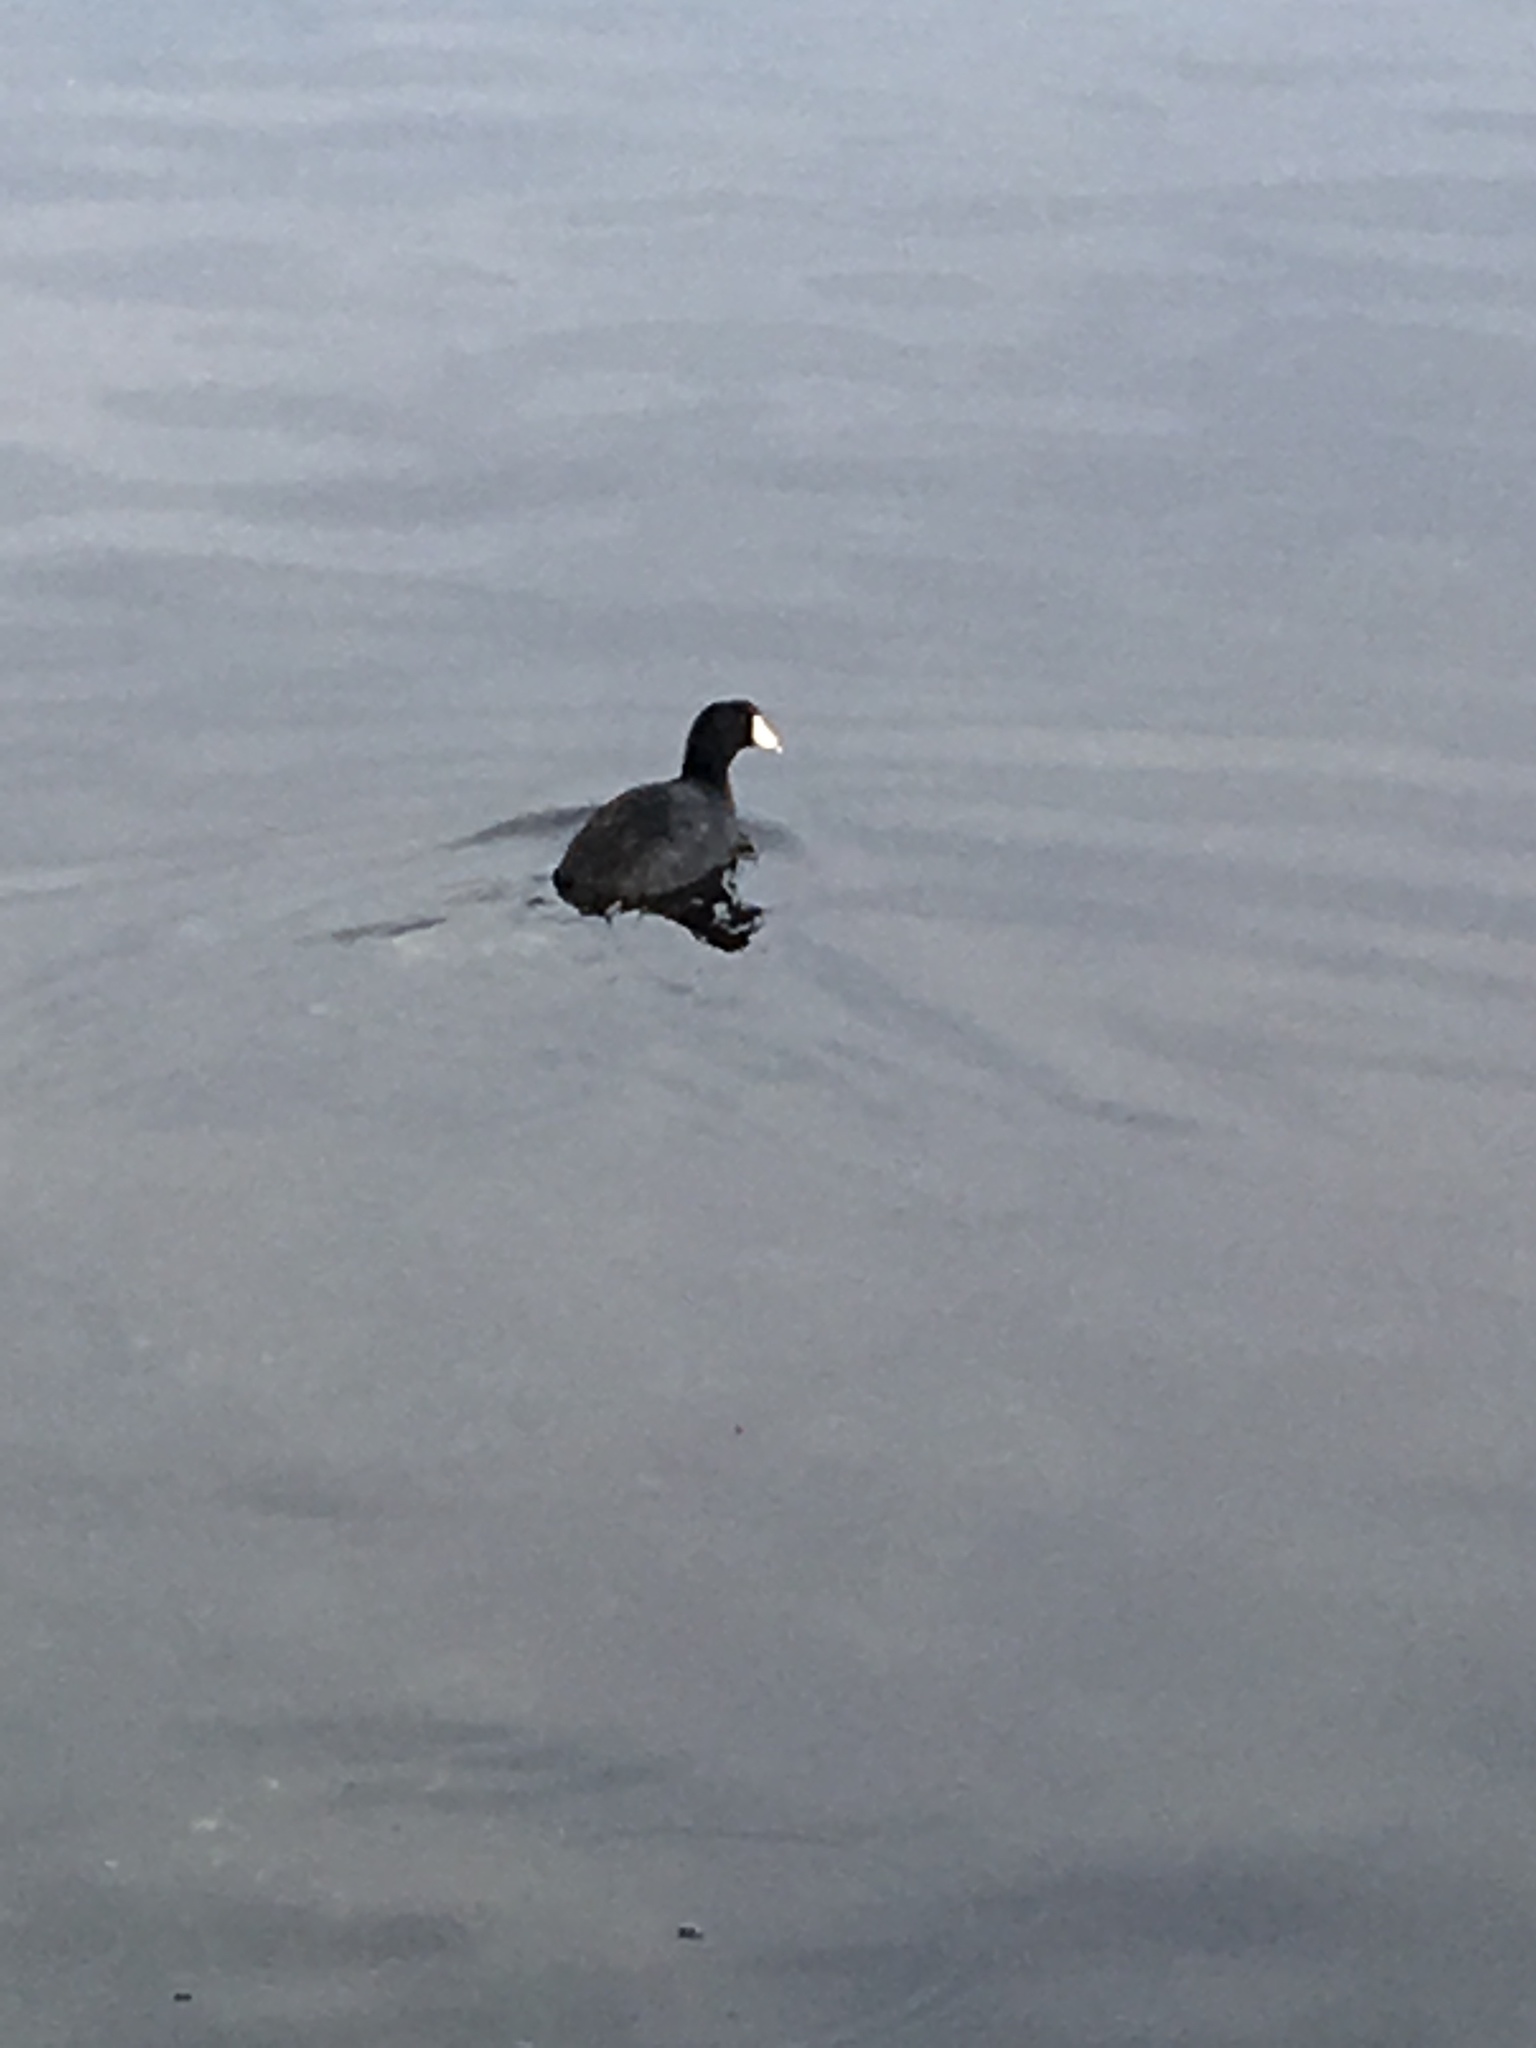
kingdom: Animalia
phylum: Chordata
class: Aves
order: Gruiformes
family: Rallidae
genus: Fulica
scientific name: Fulica americana
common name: American coot
